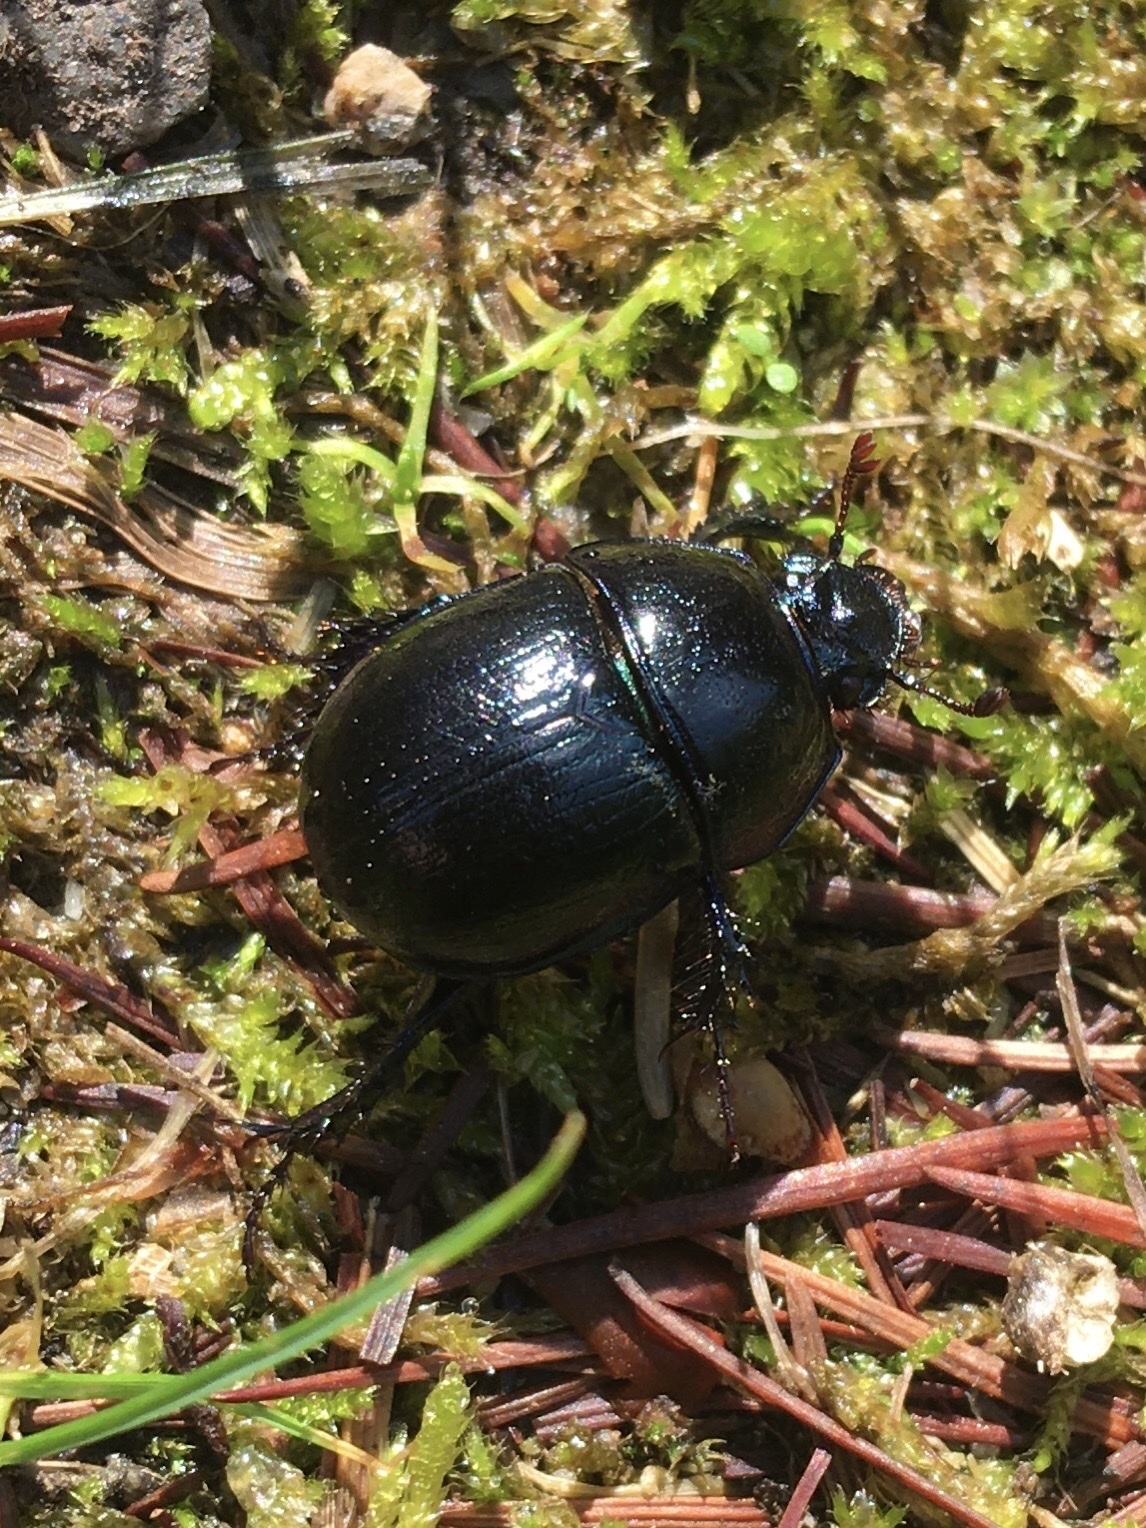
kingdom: Animalia
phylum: Arthropoda
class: Insecta
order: Coleoptera
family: Geotrupidae
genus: Anoplotrupes
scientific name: Anoplotrupes stercorosus
